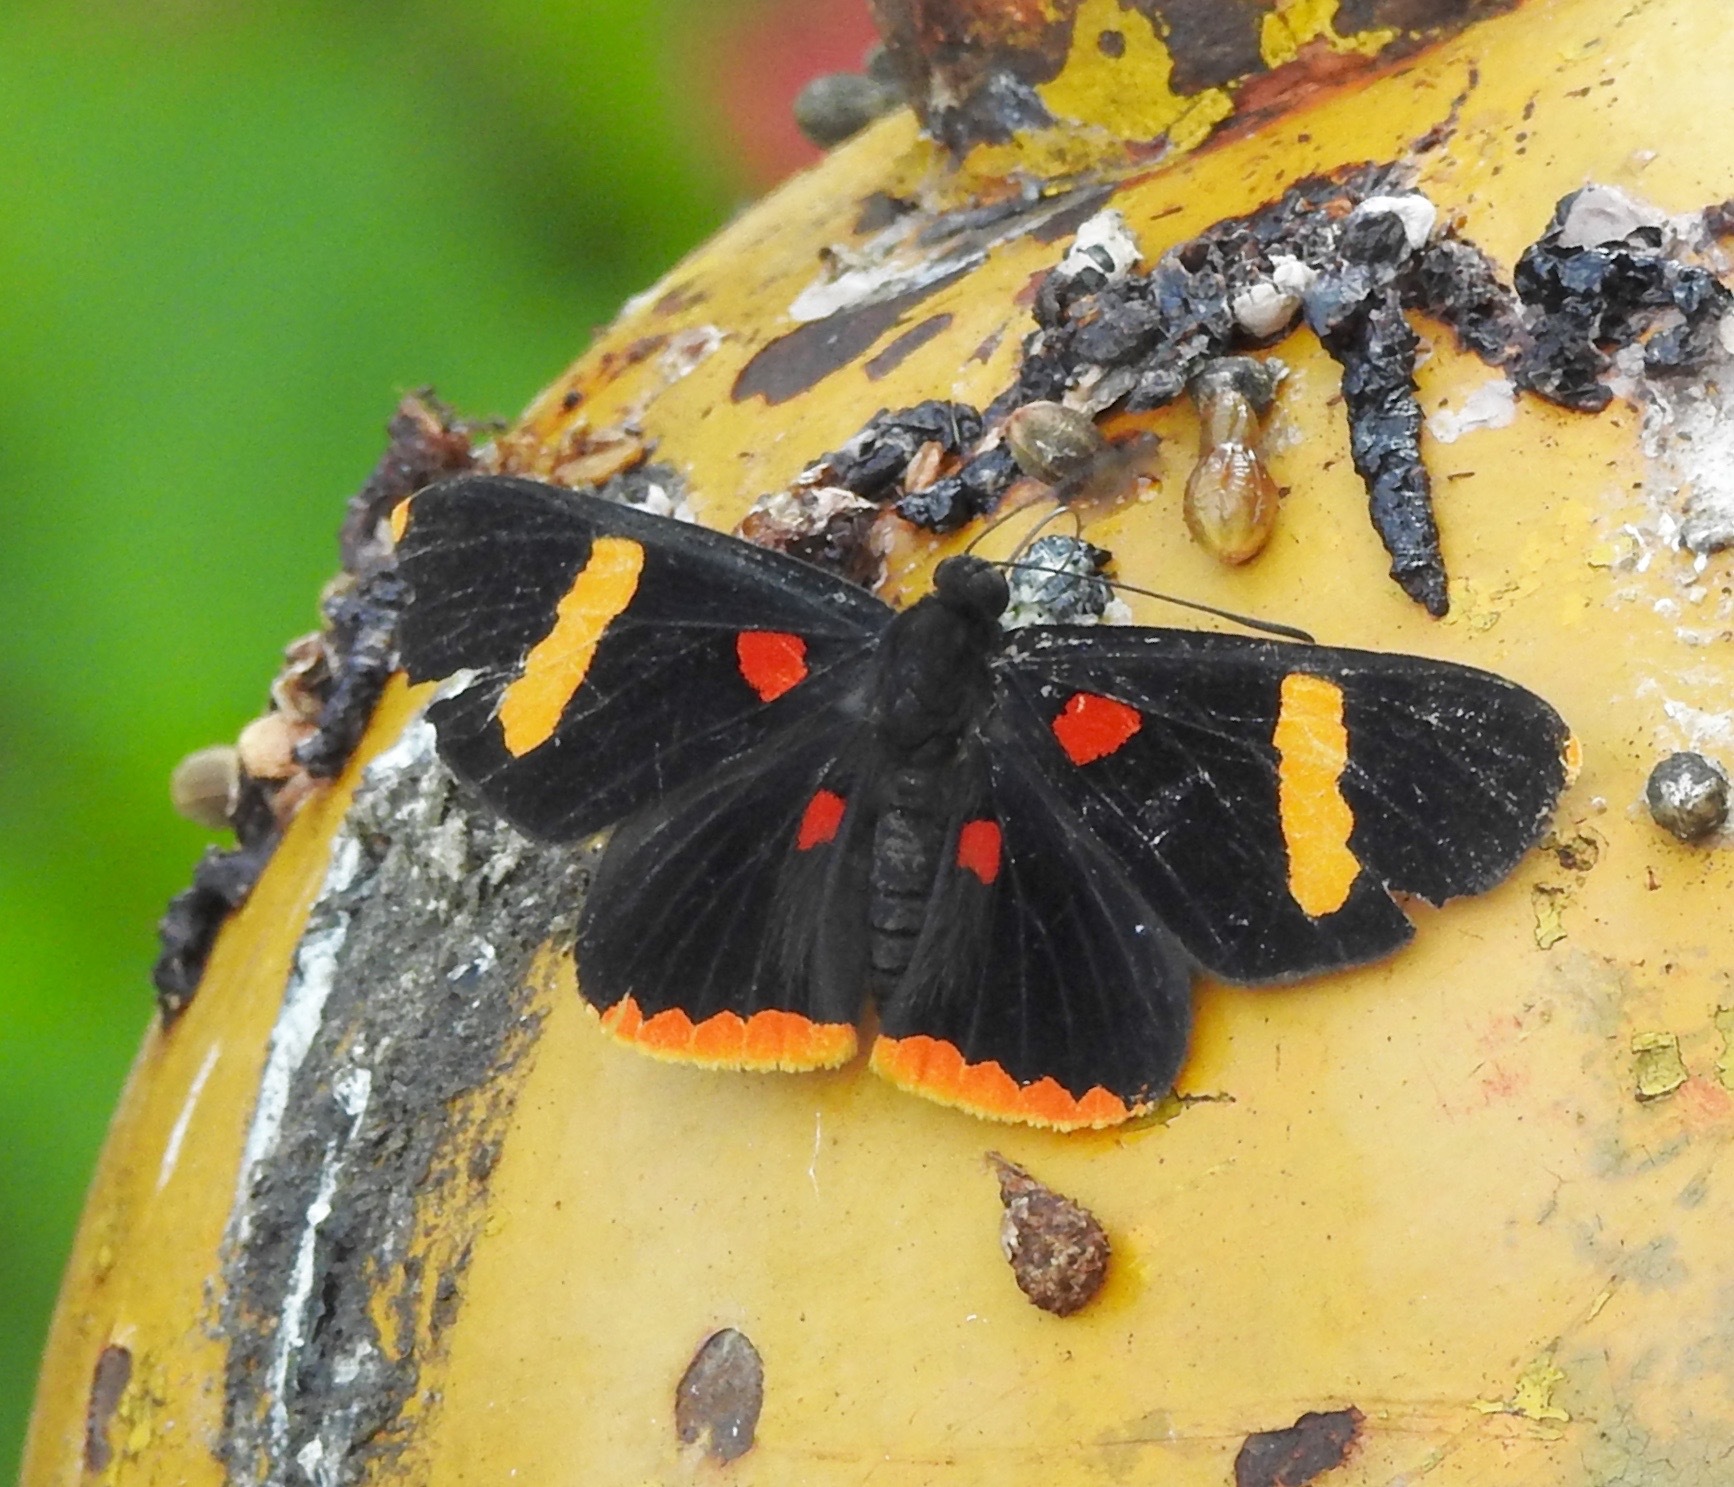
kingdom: Animalia
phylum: Arthropoda
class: Insecta
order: Lepidoptera
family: Lycaenidae
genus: Melanis
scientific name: Melanis electron
